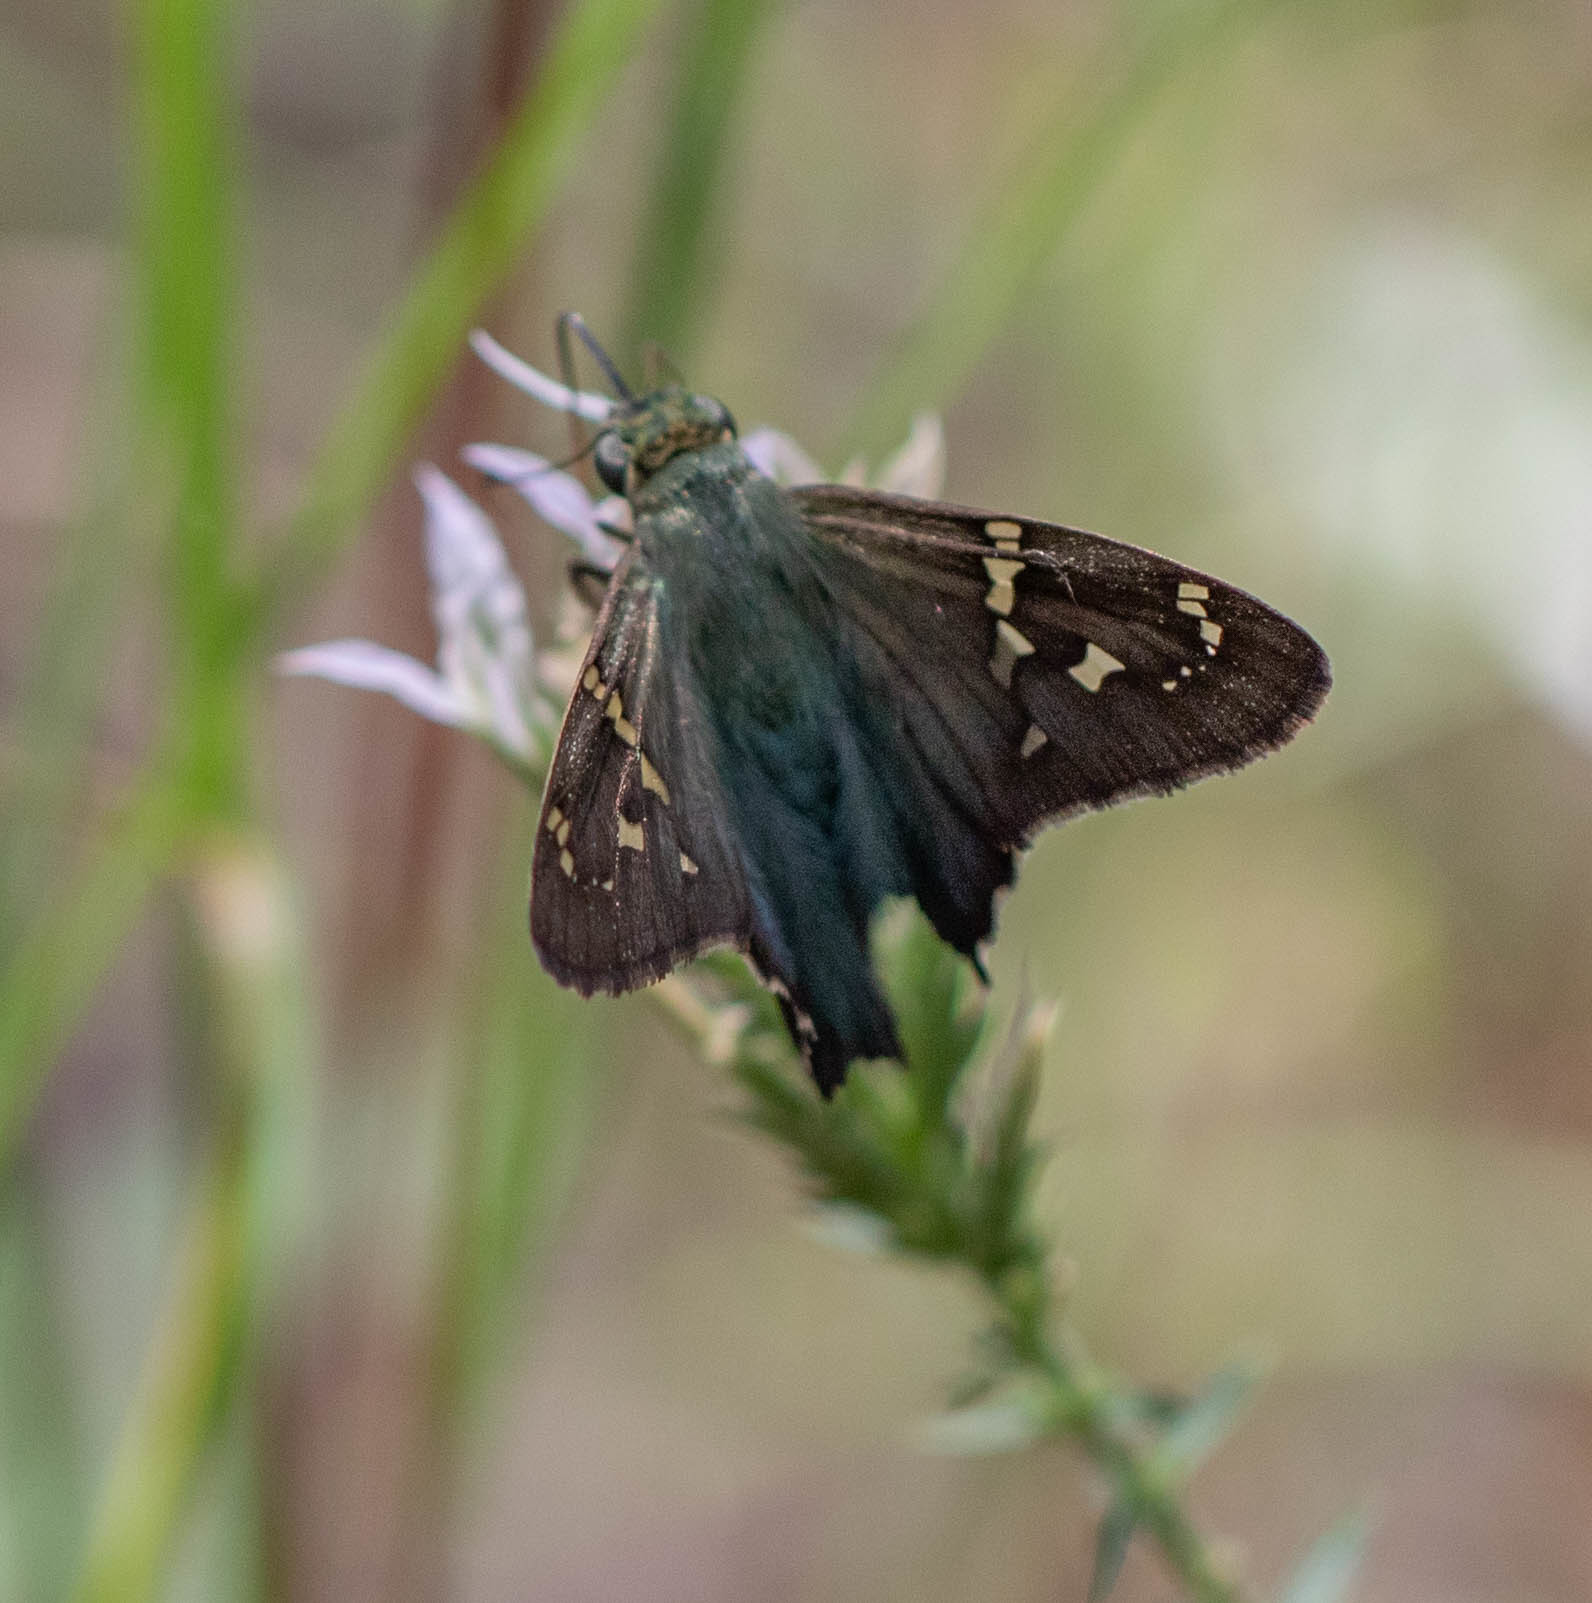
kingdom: Animalia
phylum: Arthropoda
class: Insecta
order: Lepidoptera
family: Hesperiidae
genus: Urbanus
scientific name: Urbanus proteus
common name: Long-tailed skipper
